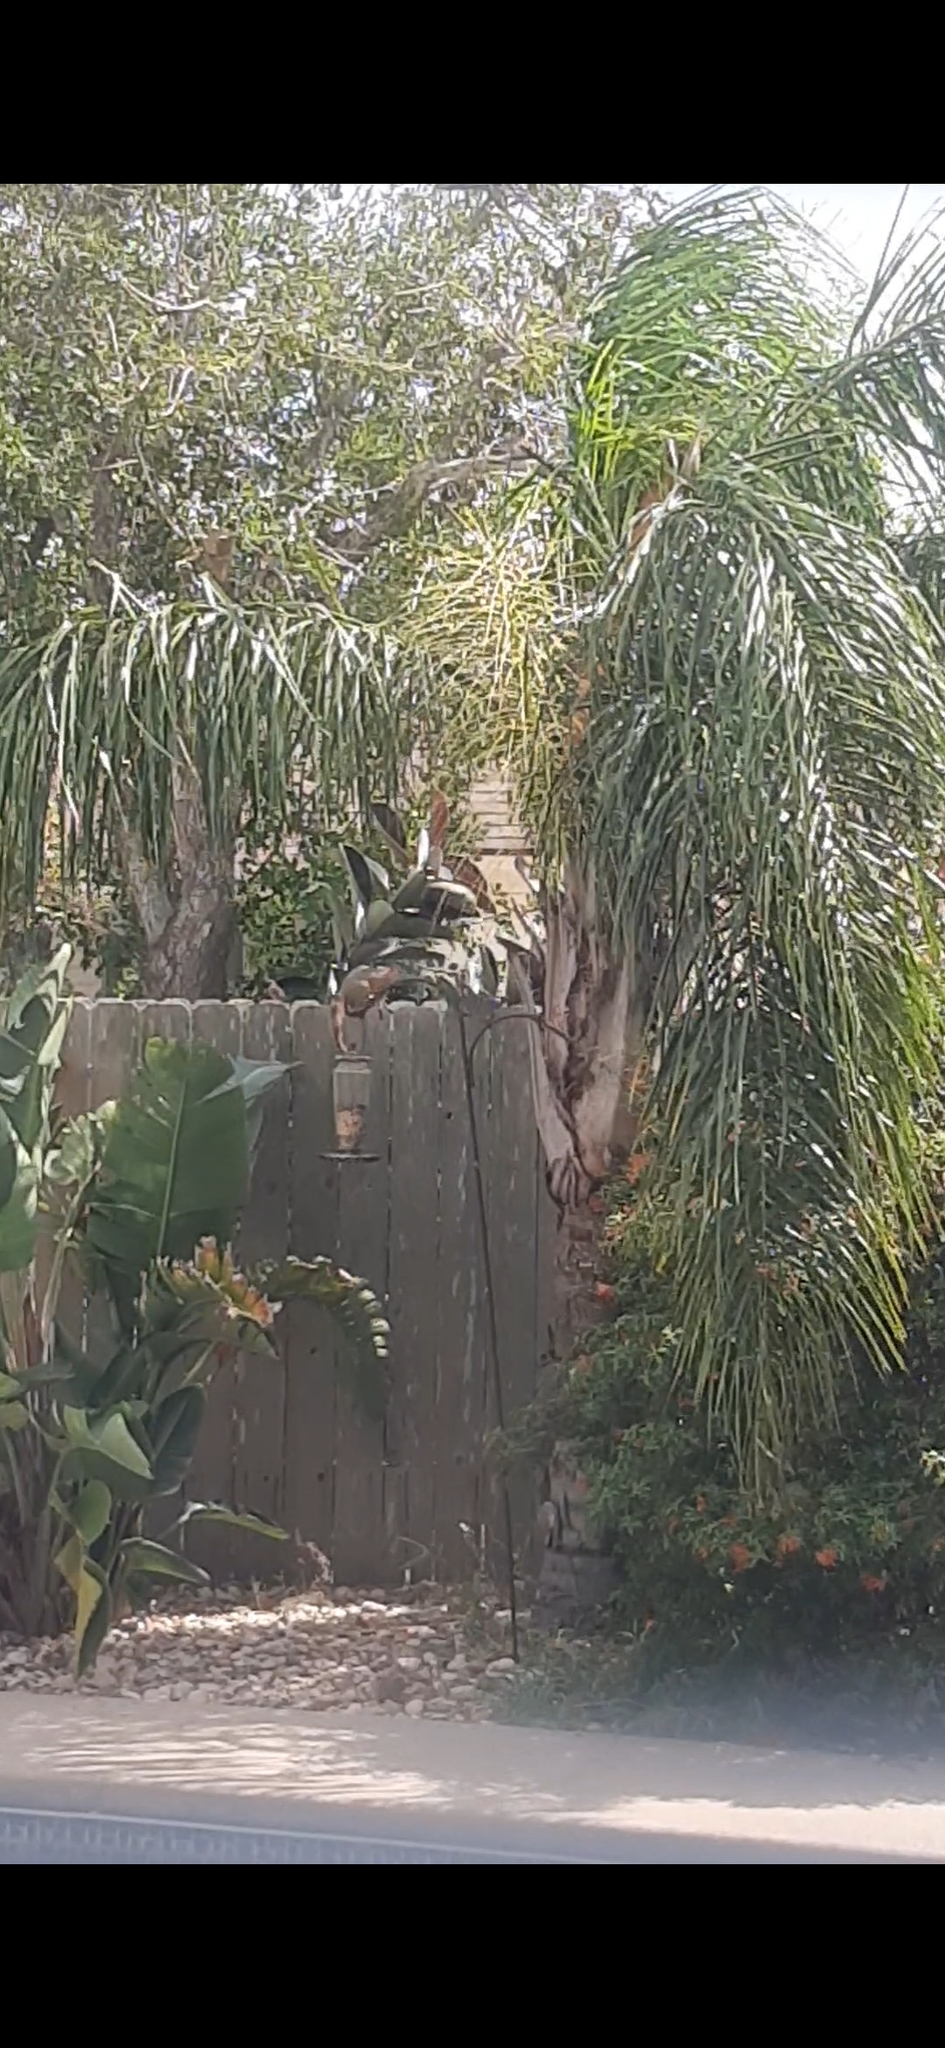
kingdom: Animalia
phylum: Chordata
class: Mammalia
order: Rodentia
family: Sciuridae
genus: Sciurus
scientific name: Sciurus niger
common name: Fox squirrel
